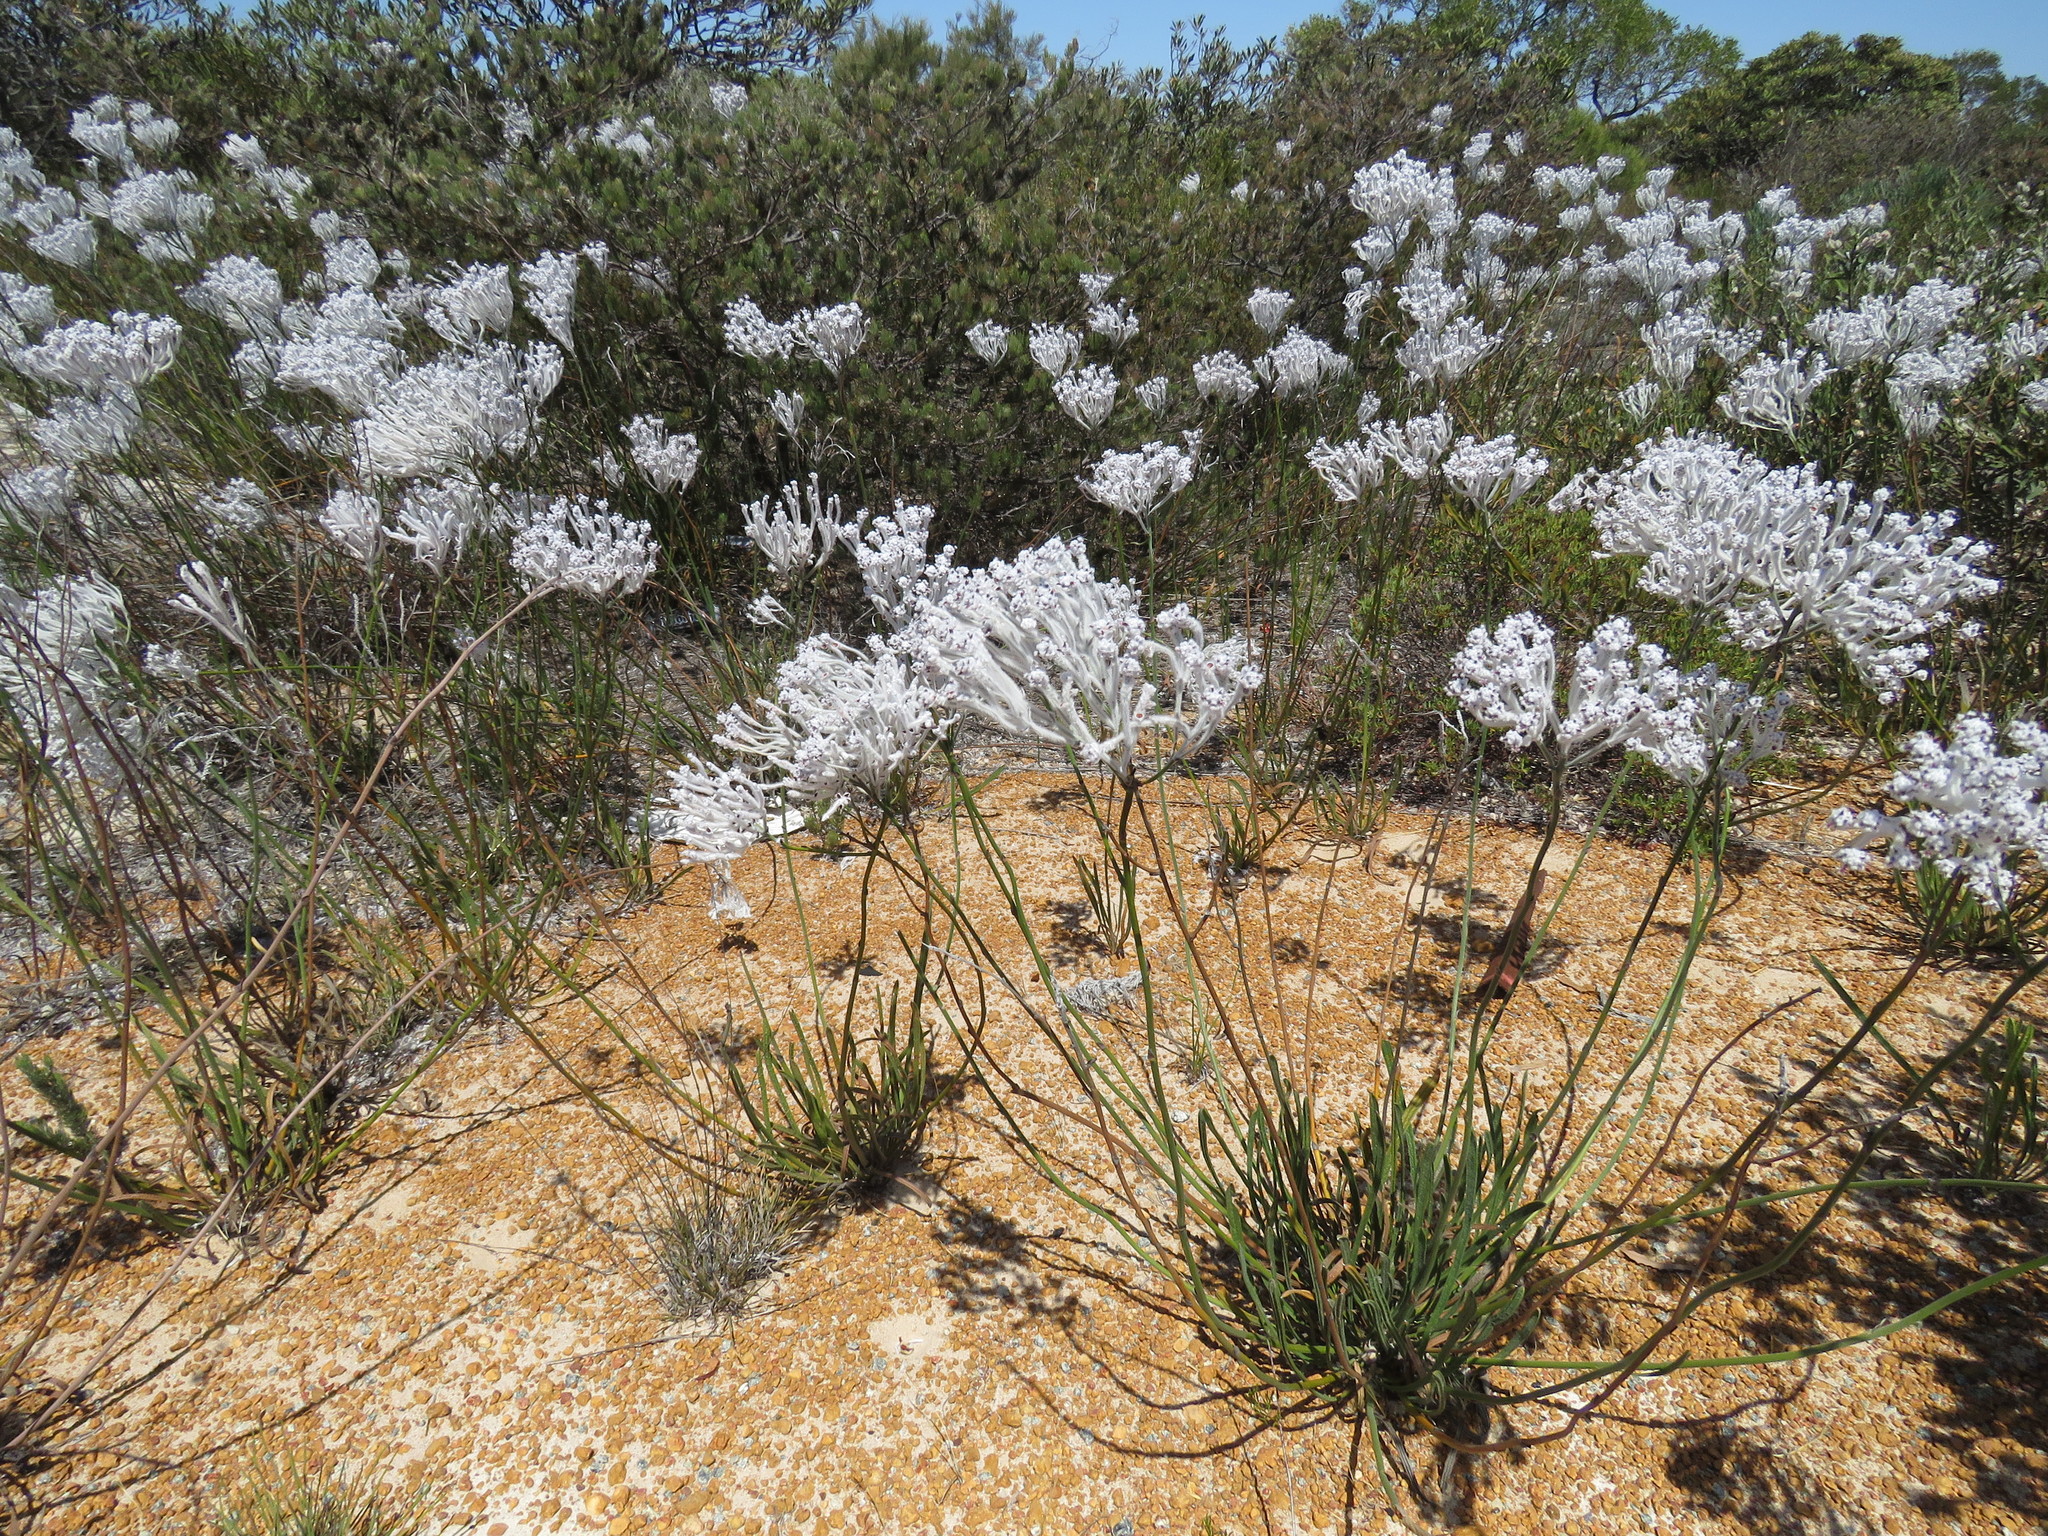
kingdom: Plantae
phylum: Tracheophyta
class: Magnoliopsida
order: Proteales
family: Proteaceae
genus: Conospermum
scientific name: Conospermum crassinervium
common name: Tassel smokebush
